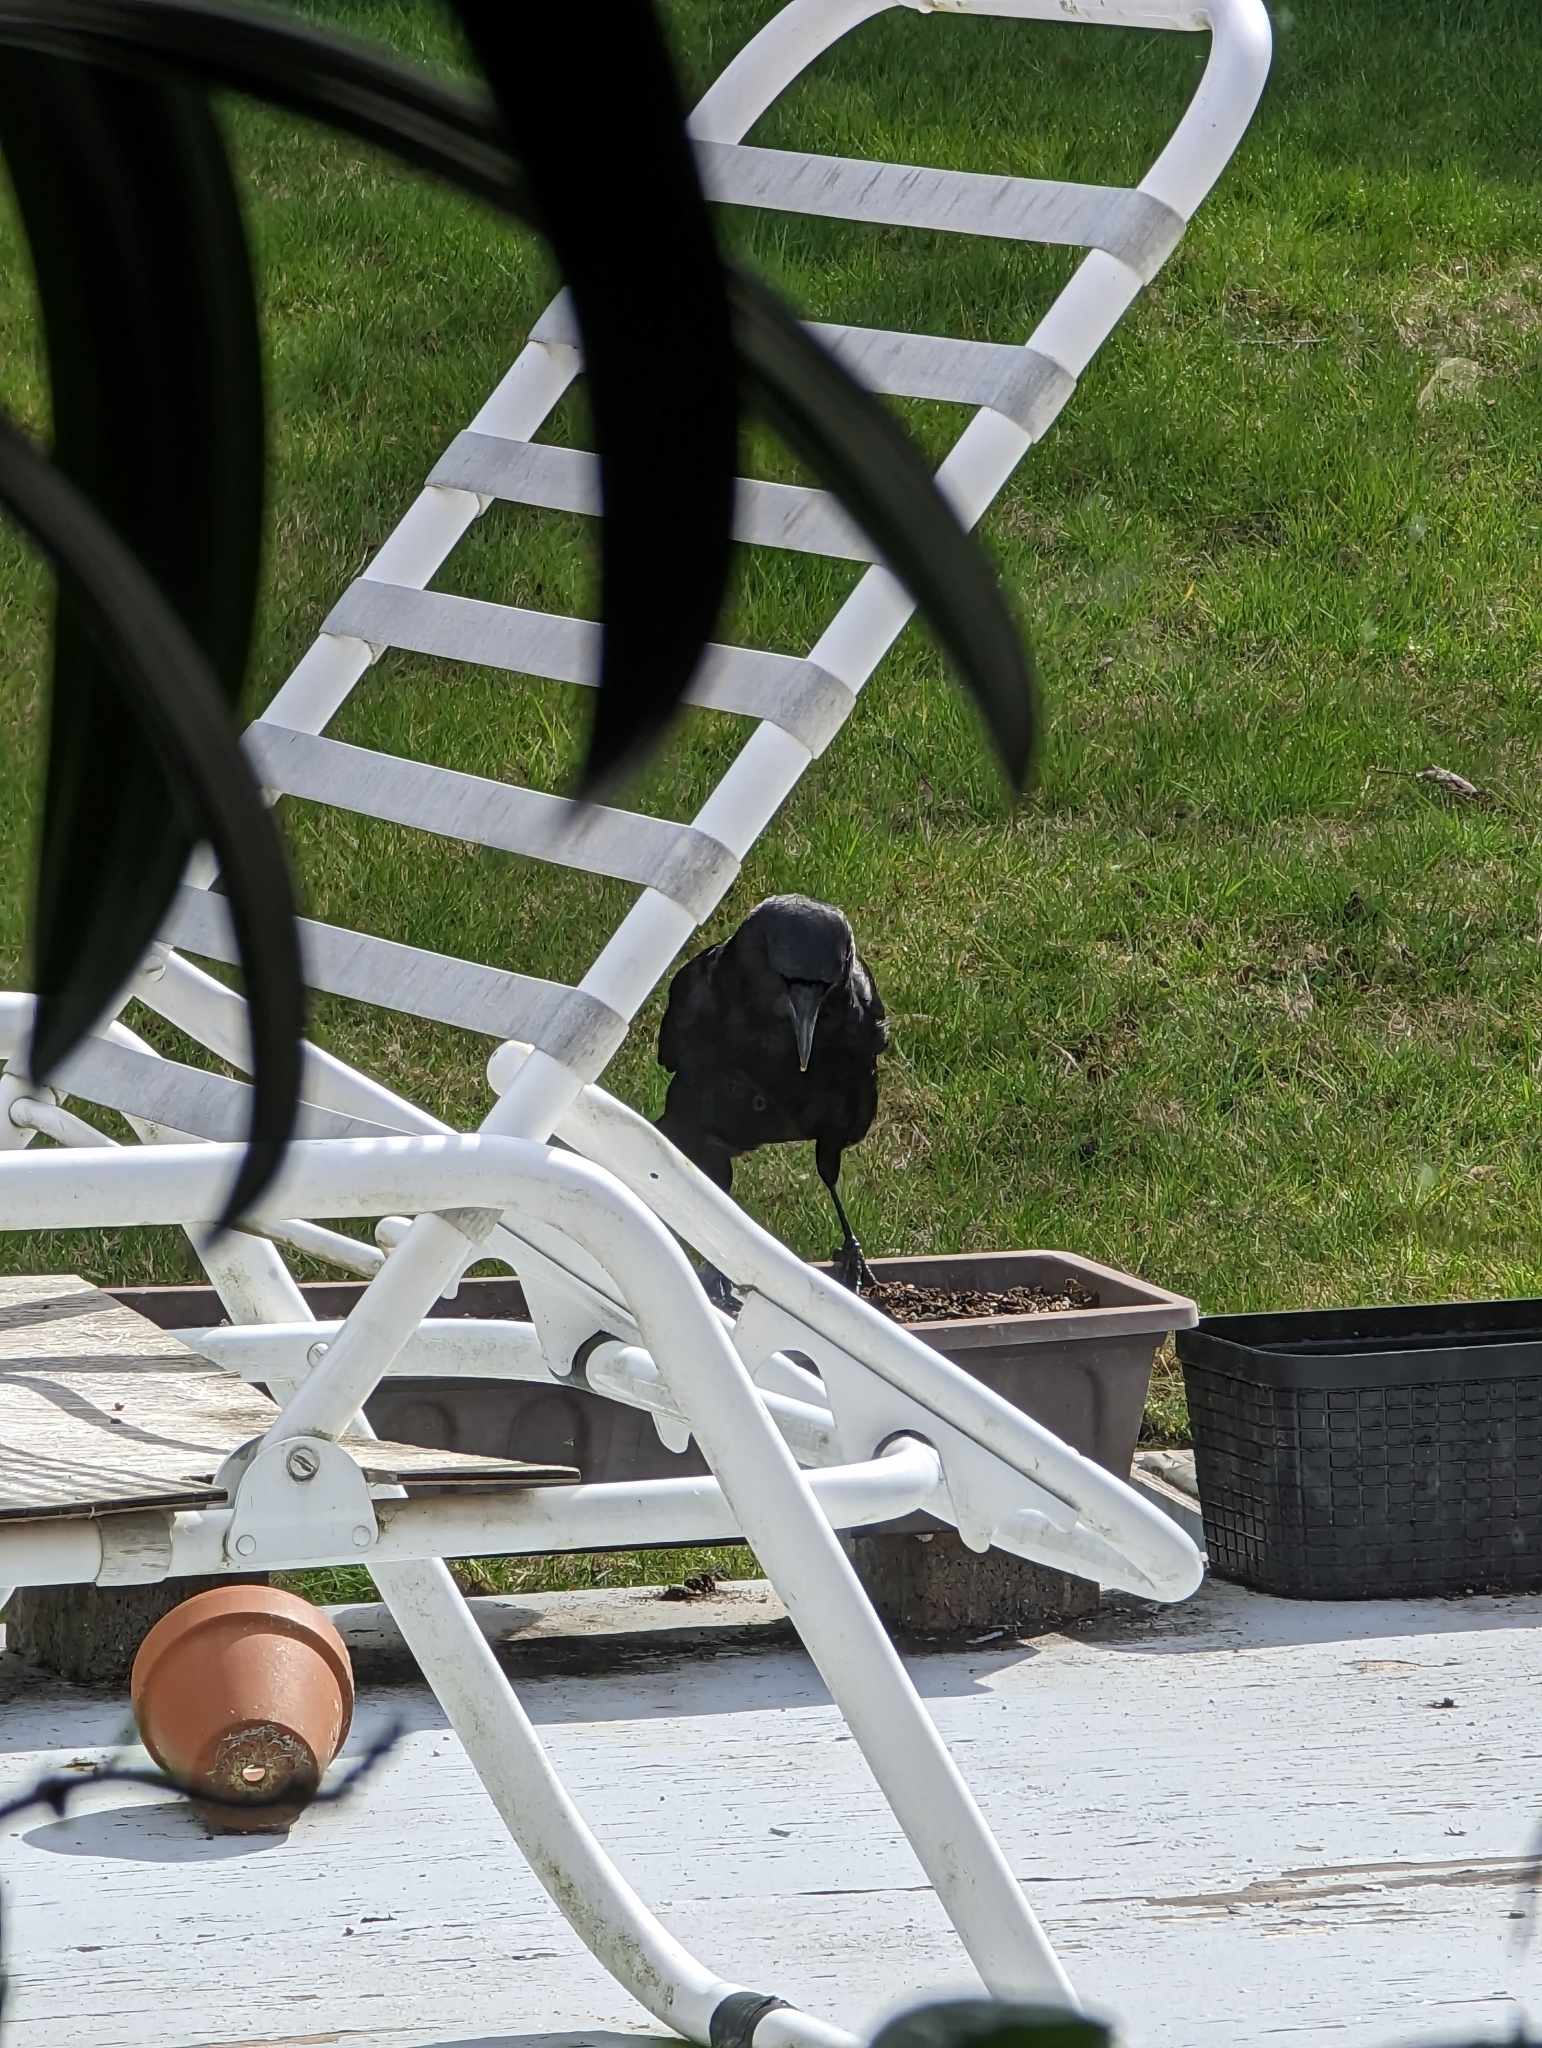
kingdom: Animalia
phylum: Chordata
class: Aves
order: Passeriformes
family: Corvidae
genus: Corvus
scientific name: Corvus brachyrhynchos
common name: American crow
